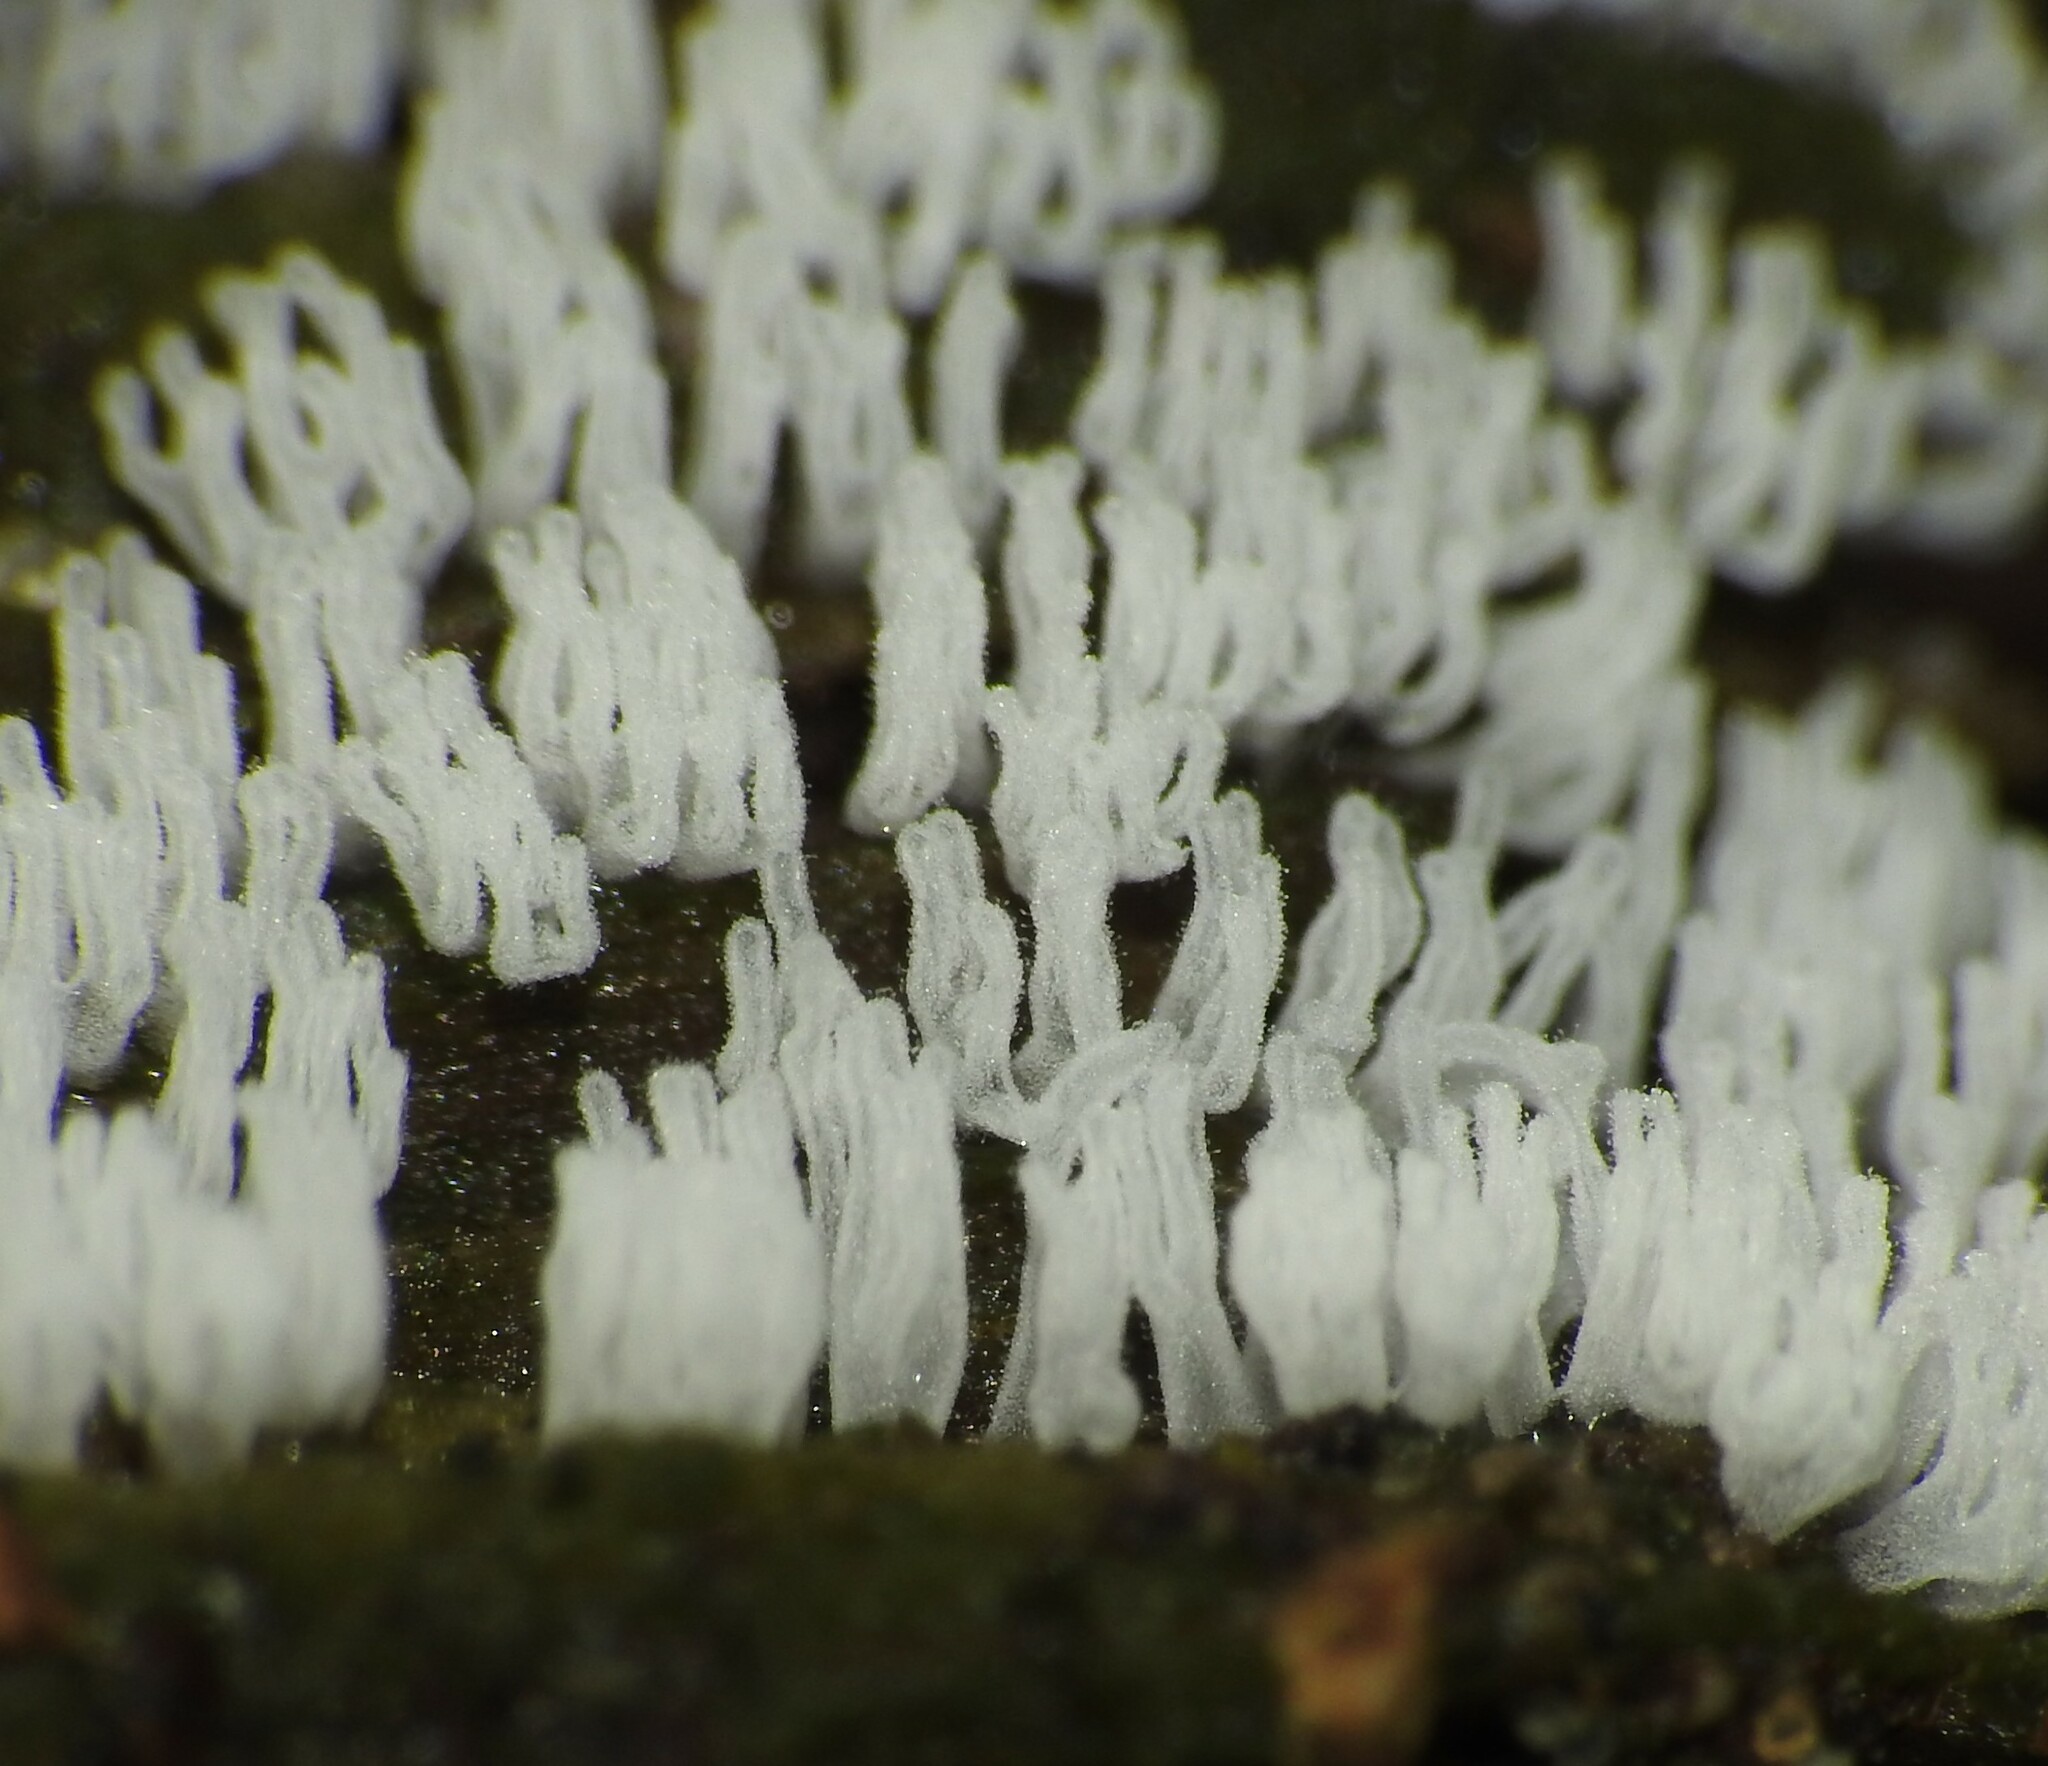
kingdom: Protozoa
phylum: Mycetozoa
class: Protosteliomycetes
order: Ceratiomyxales
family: Ceratiomyxaceae
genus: Ceratiomyxa
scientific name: Ceratiomyxa fruticulosa
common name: Honeycomb coral slime mold
